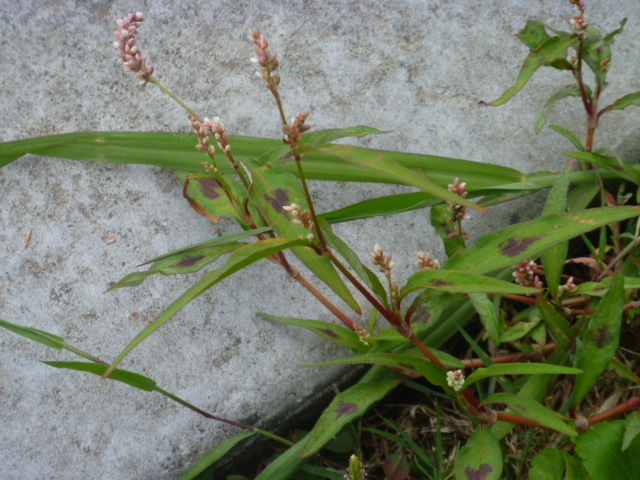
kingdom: Plantae
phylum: Tracheophyta
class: Magnoliopsida
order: Caryophyllales
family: Polygonaceae
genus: Persicaria
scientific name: Persicaria maculosa
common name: Redshank
